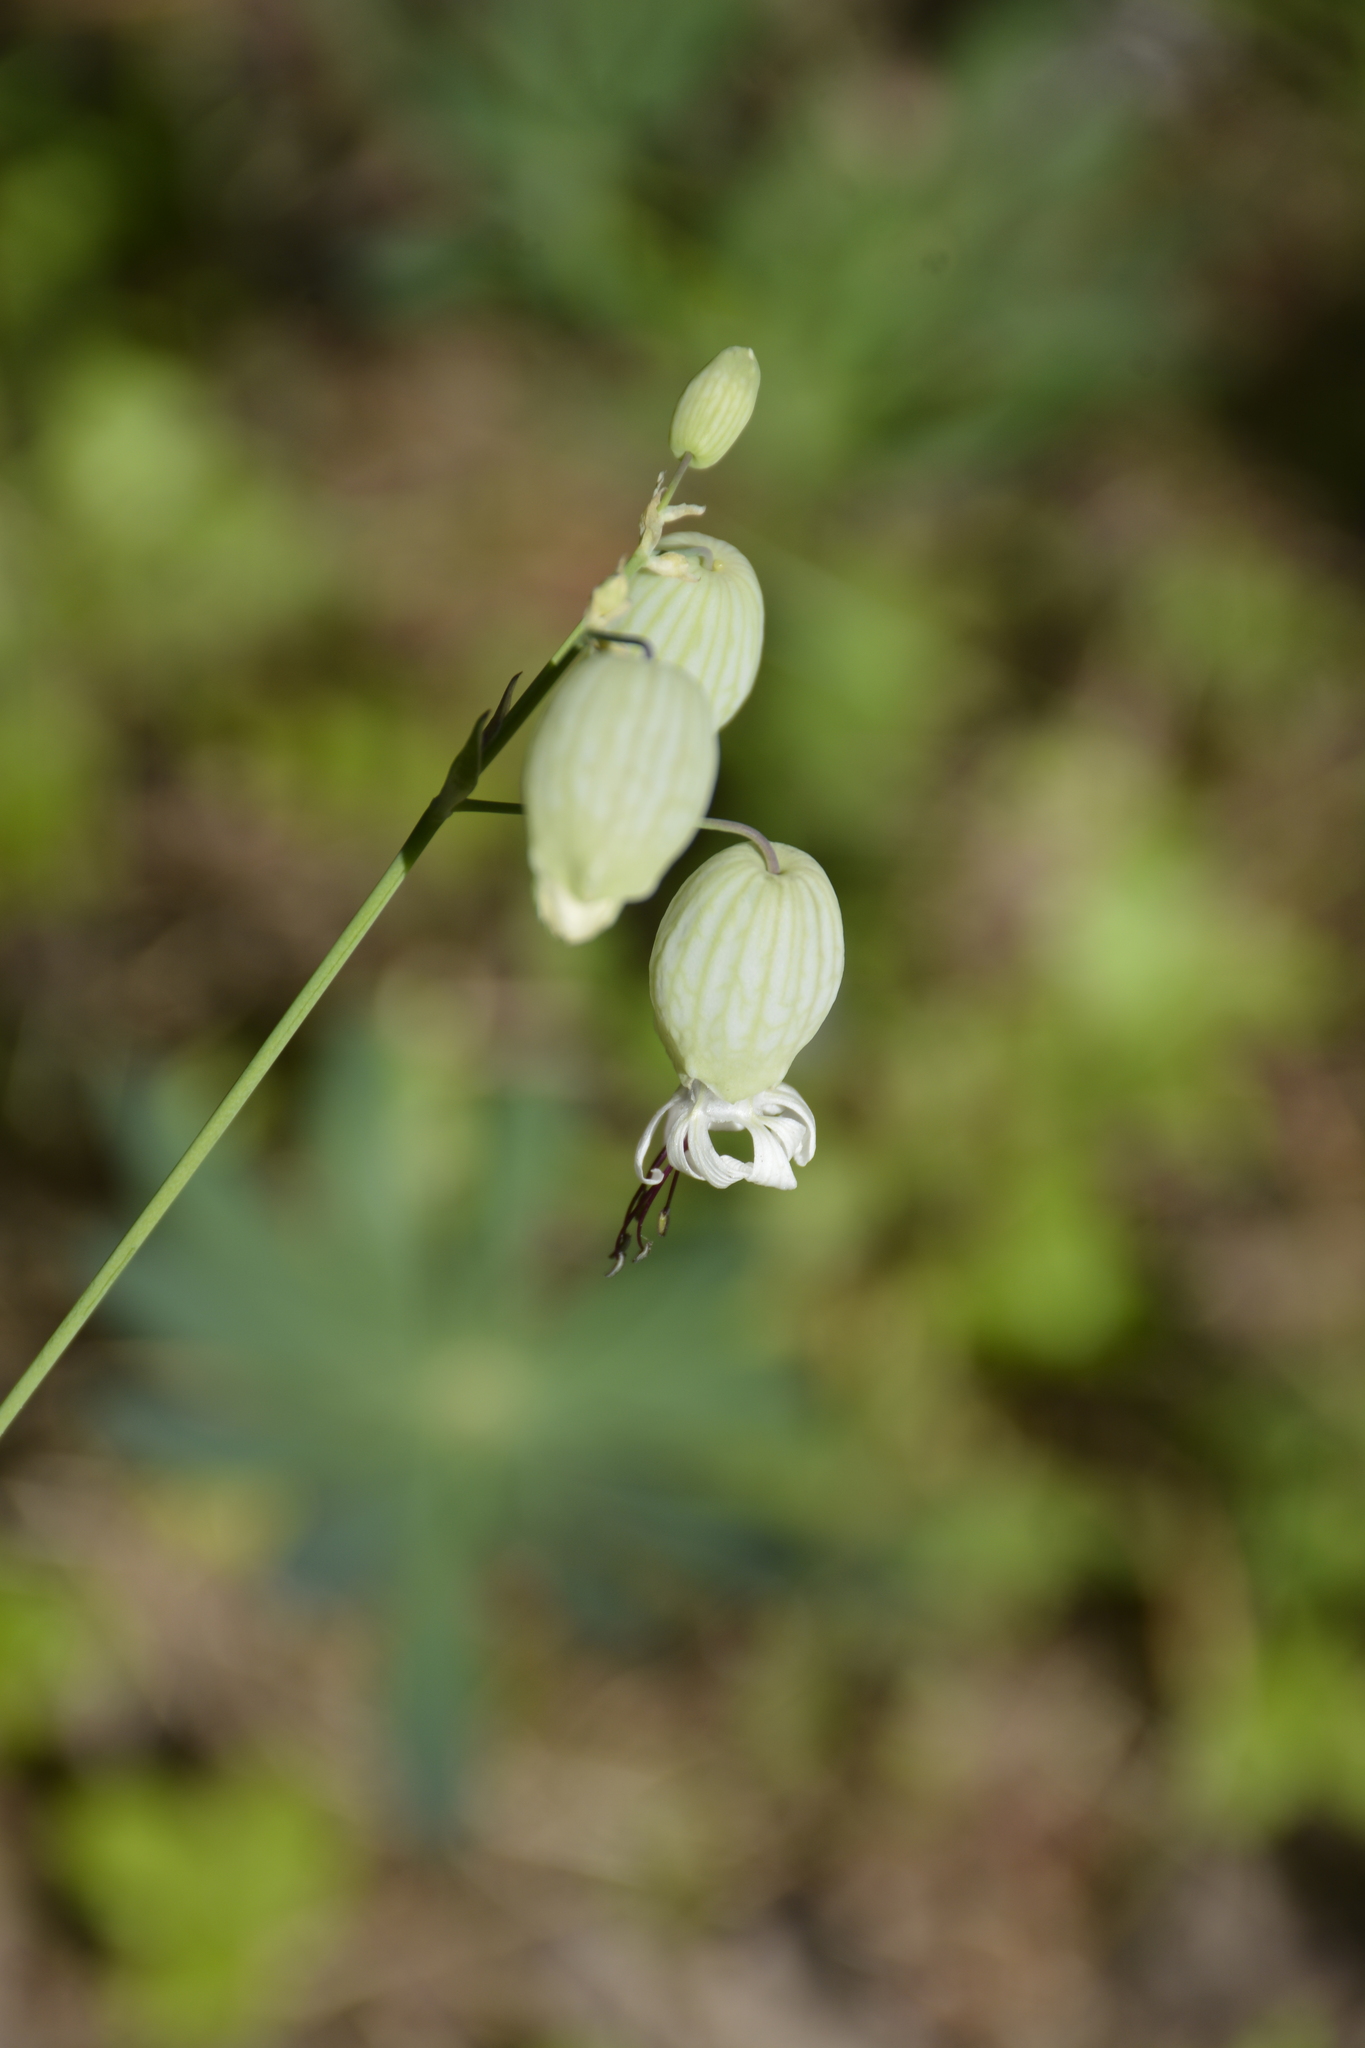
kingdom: Plantae
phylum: Tracheophyta
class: Magnoliopsida
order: Caryophyllales
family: Caryophyllaceae
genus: Silene
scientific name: Silene vulgaris
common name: Bladder campion
